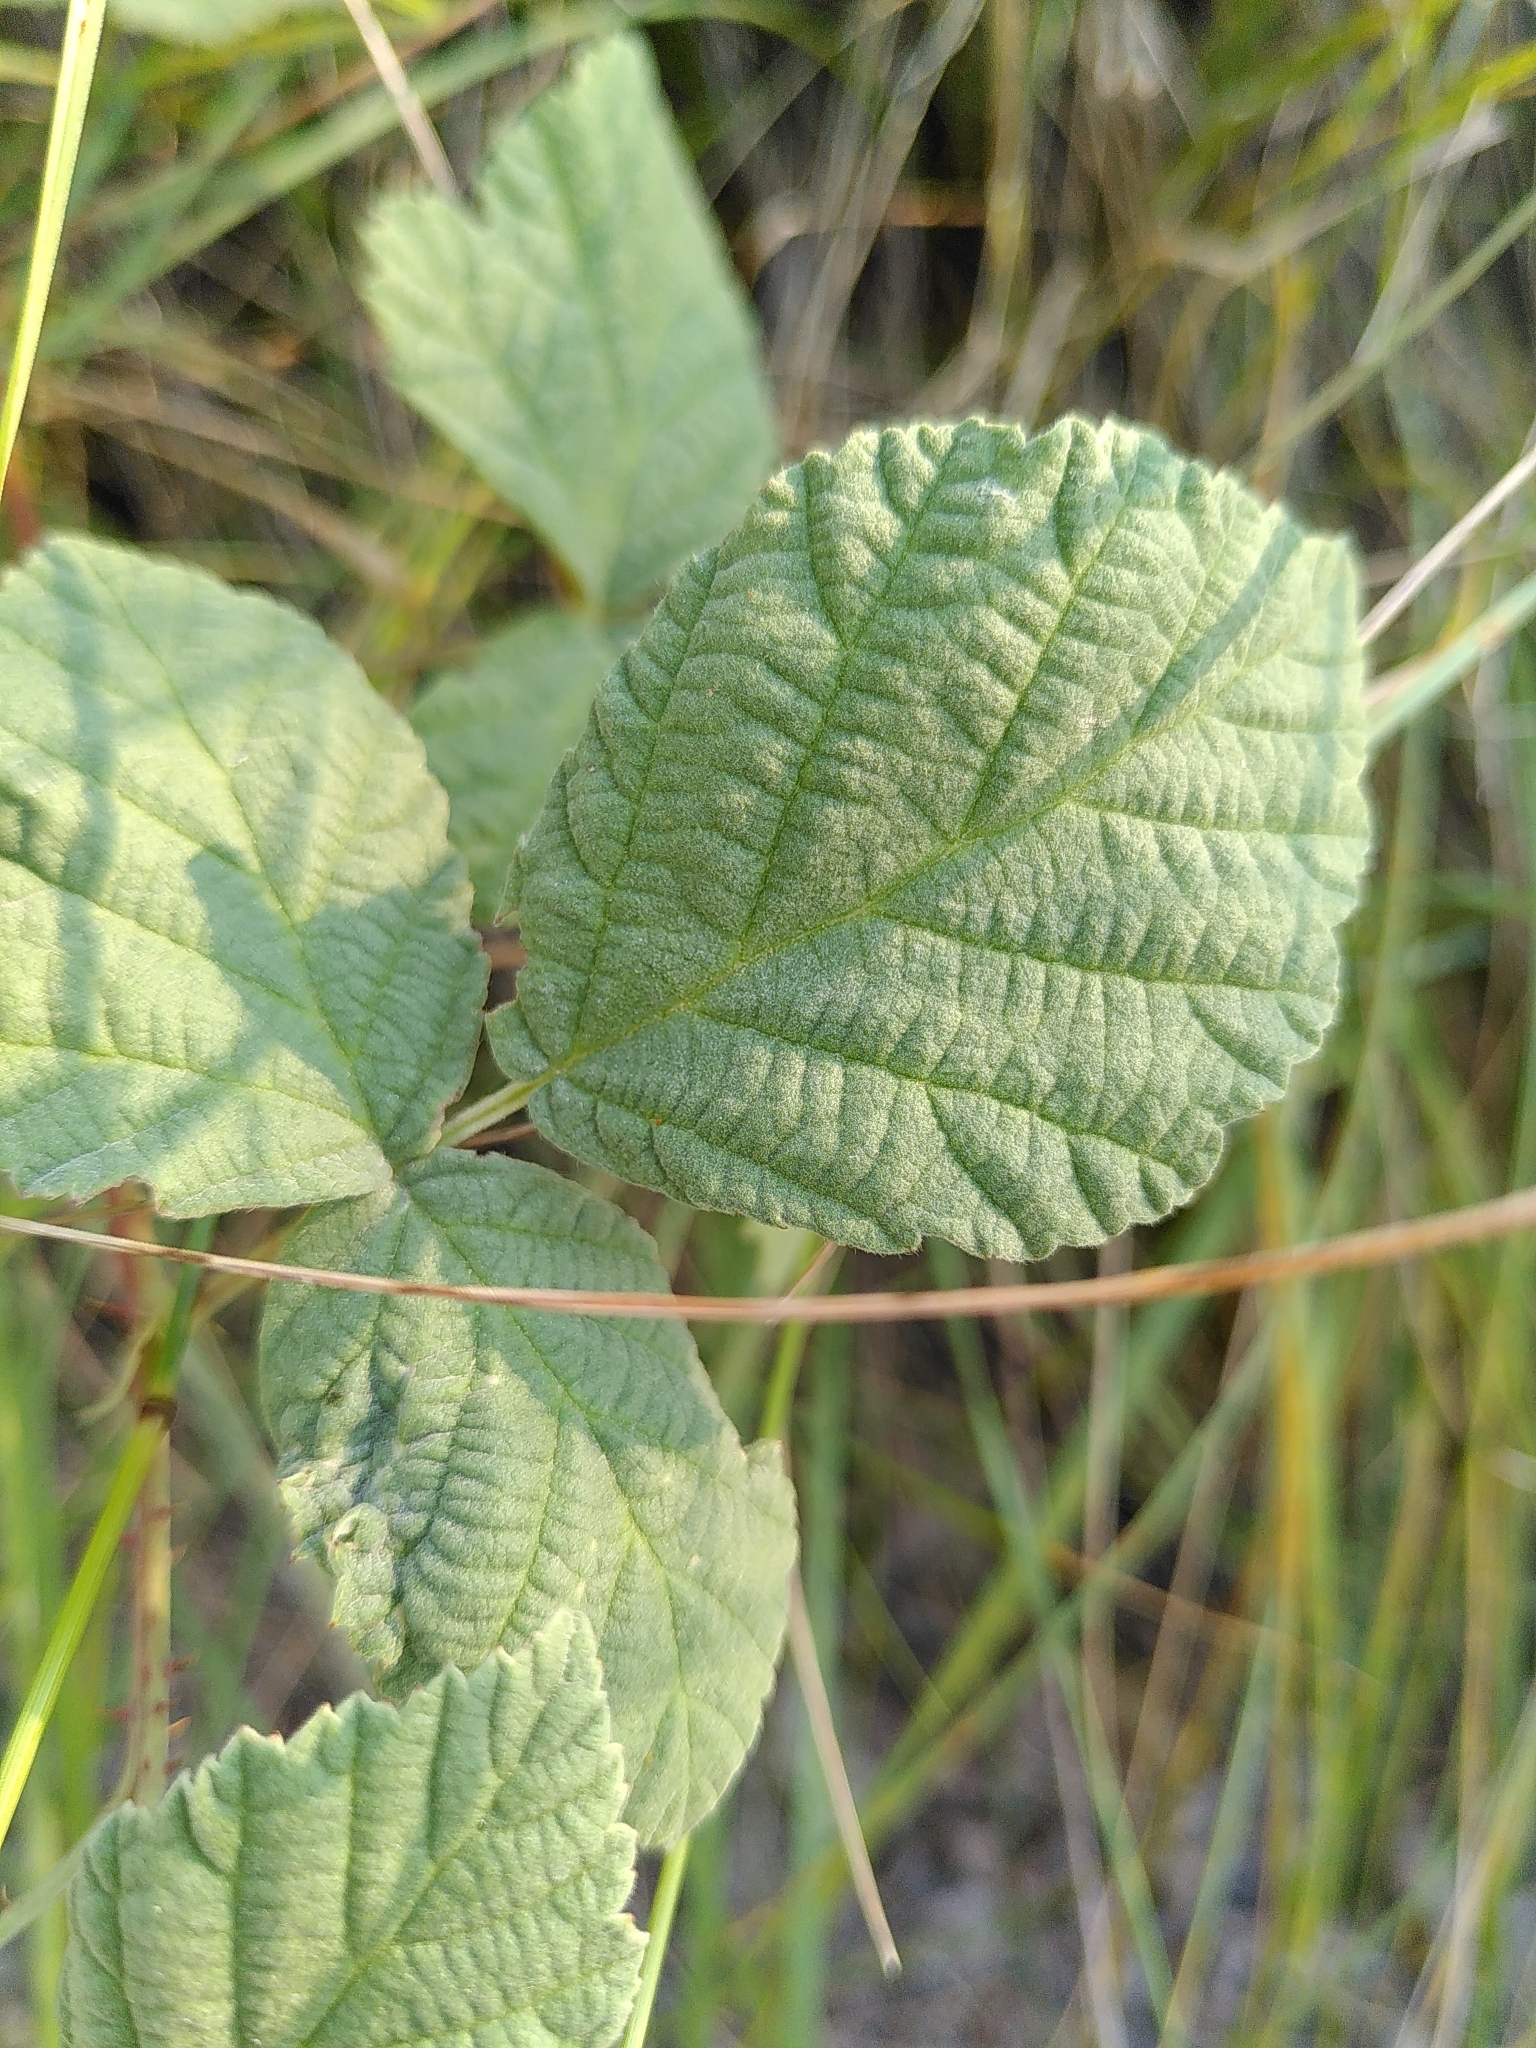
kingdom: Plantae
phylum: Tracheophyta
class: Magnoliopsida
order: Rosales
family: Rosaceae
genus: Rubus
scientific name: Rubus canescens
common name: Wooly blackberry
